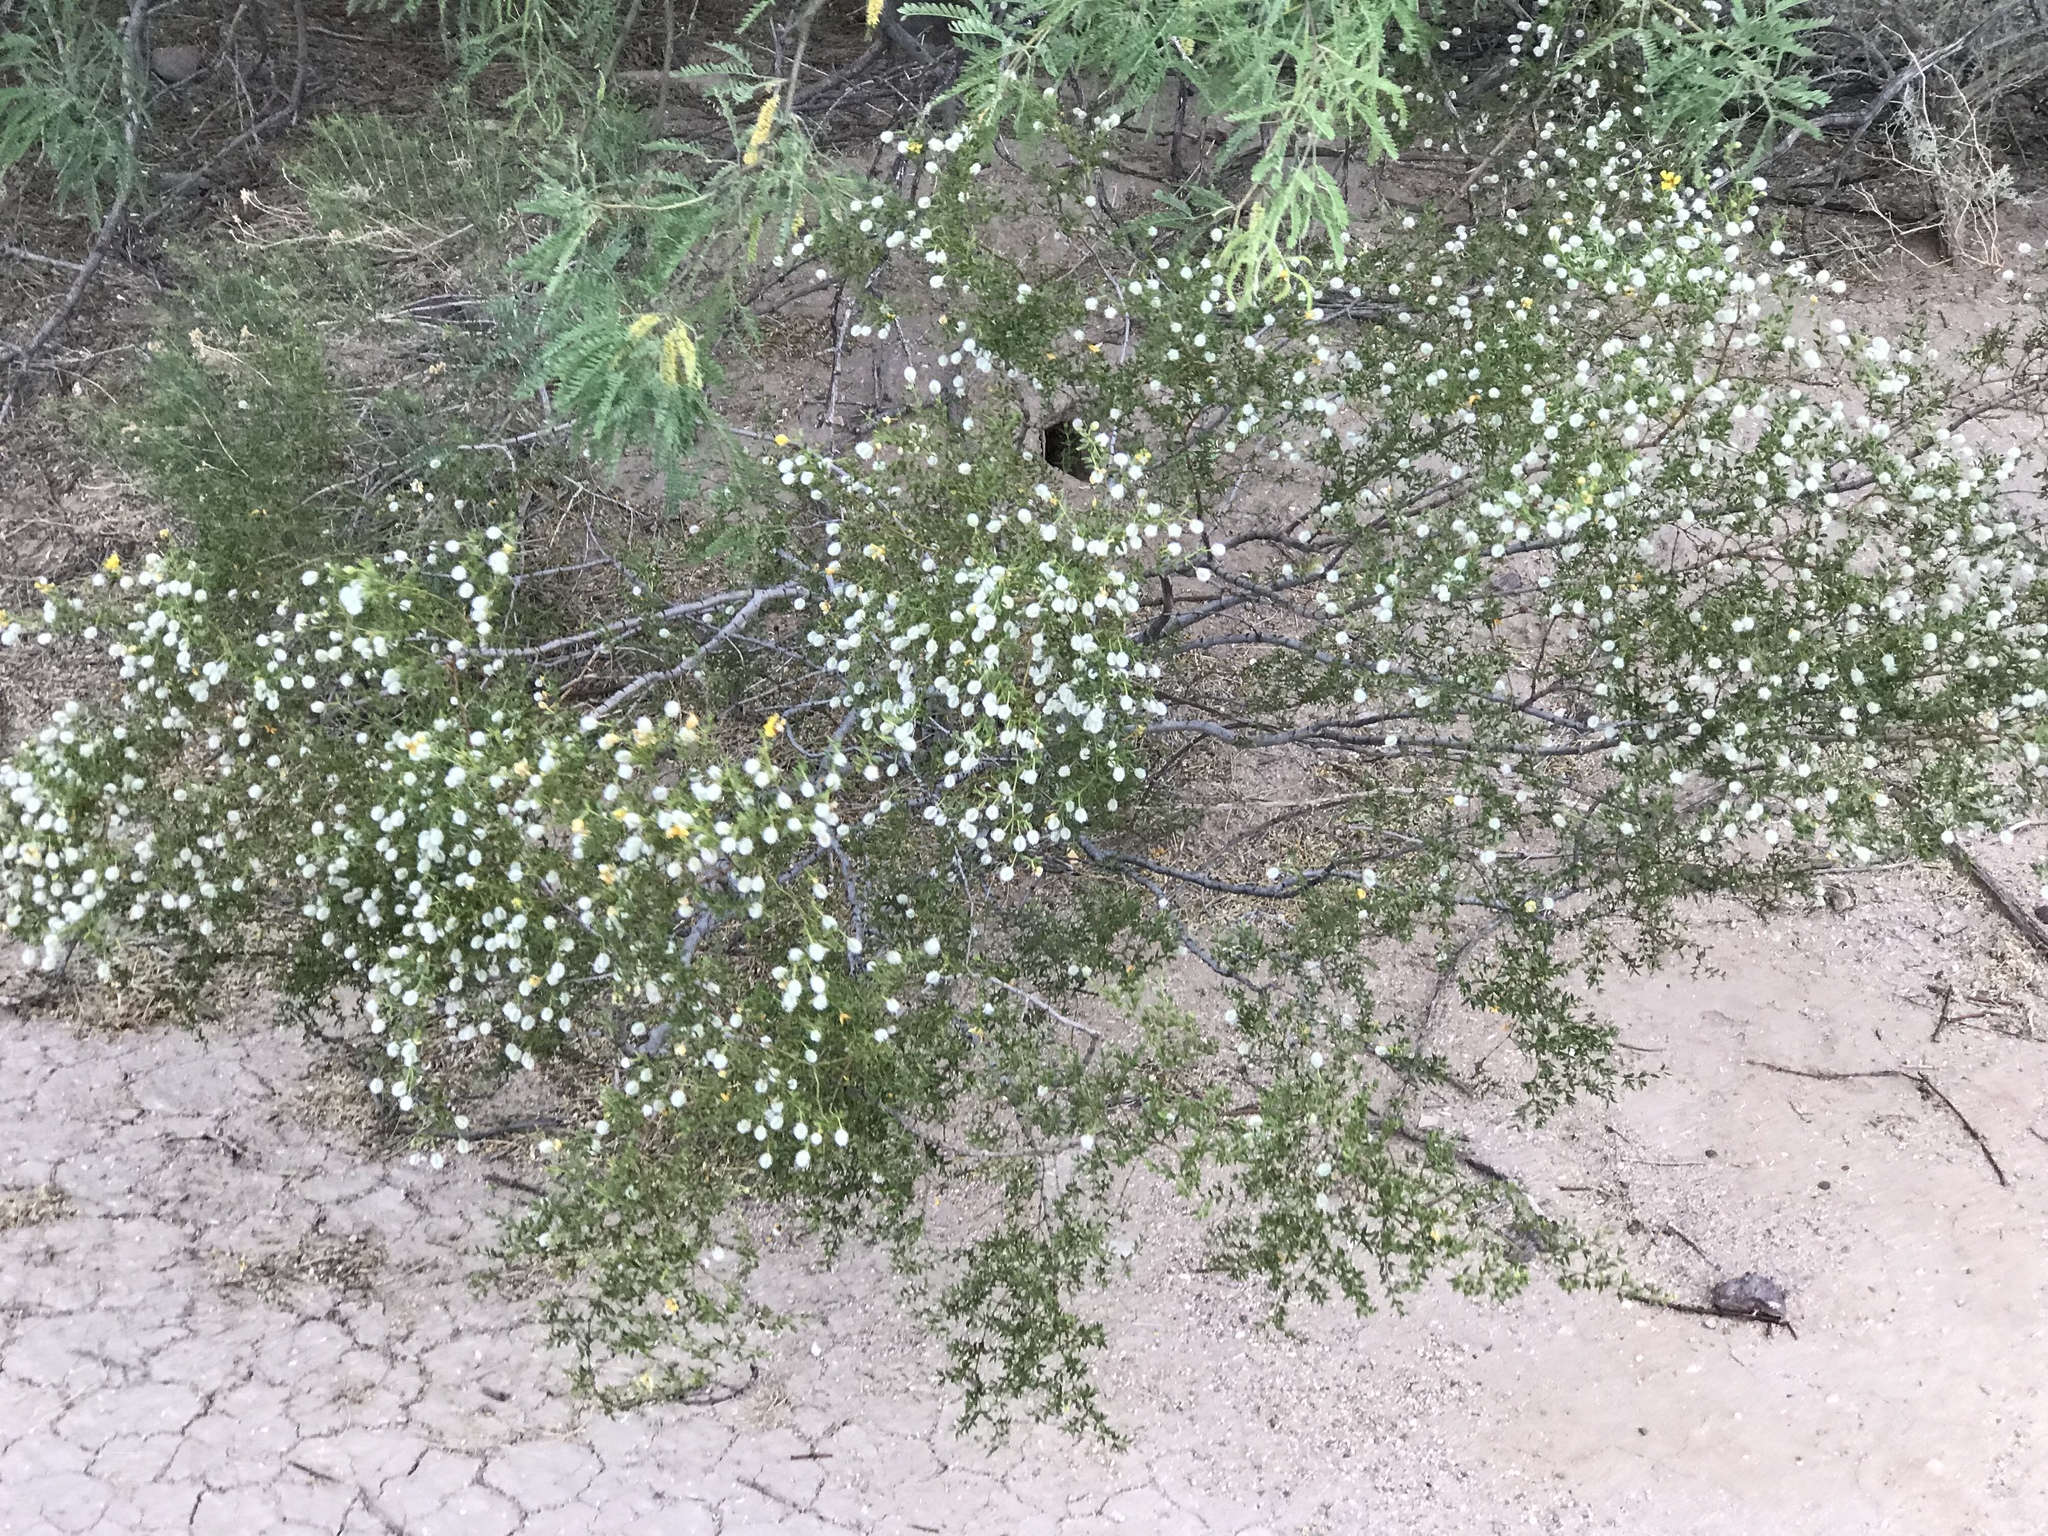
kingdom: Plantae
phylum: Tracheophyta
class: Magnoliopsida
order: Zygophyllales
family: Zygophyllaceae
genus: Larrea
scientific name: Larrea tridentata
